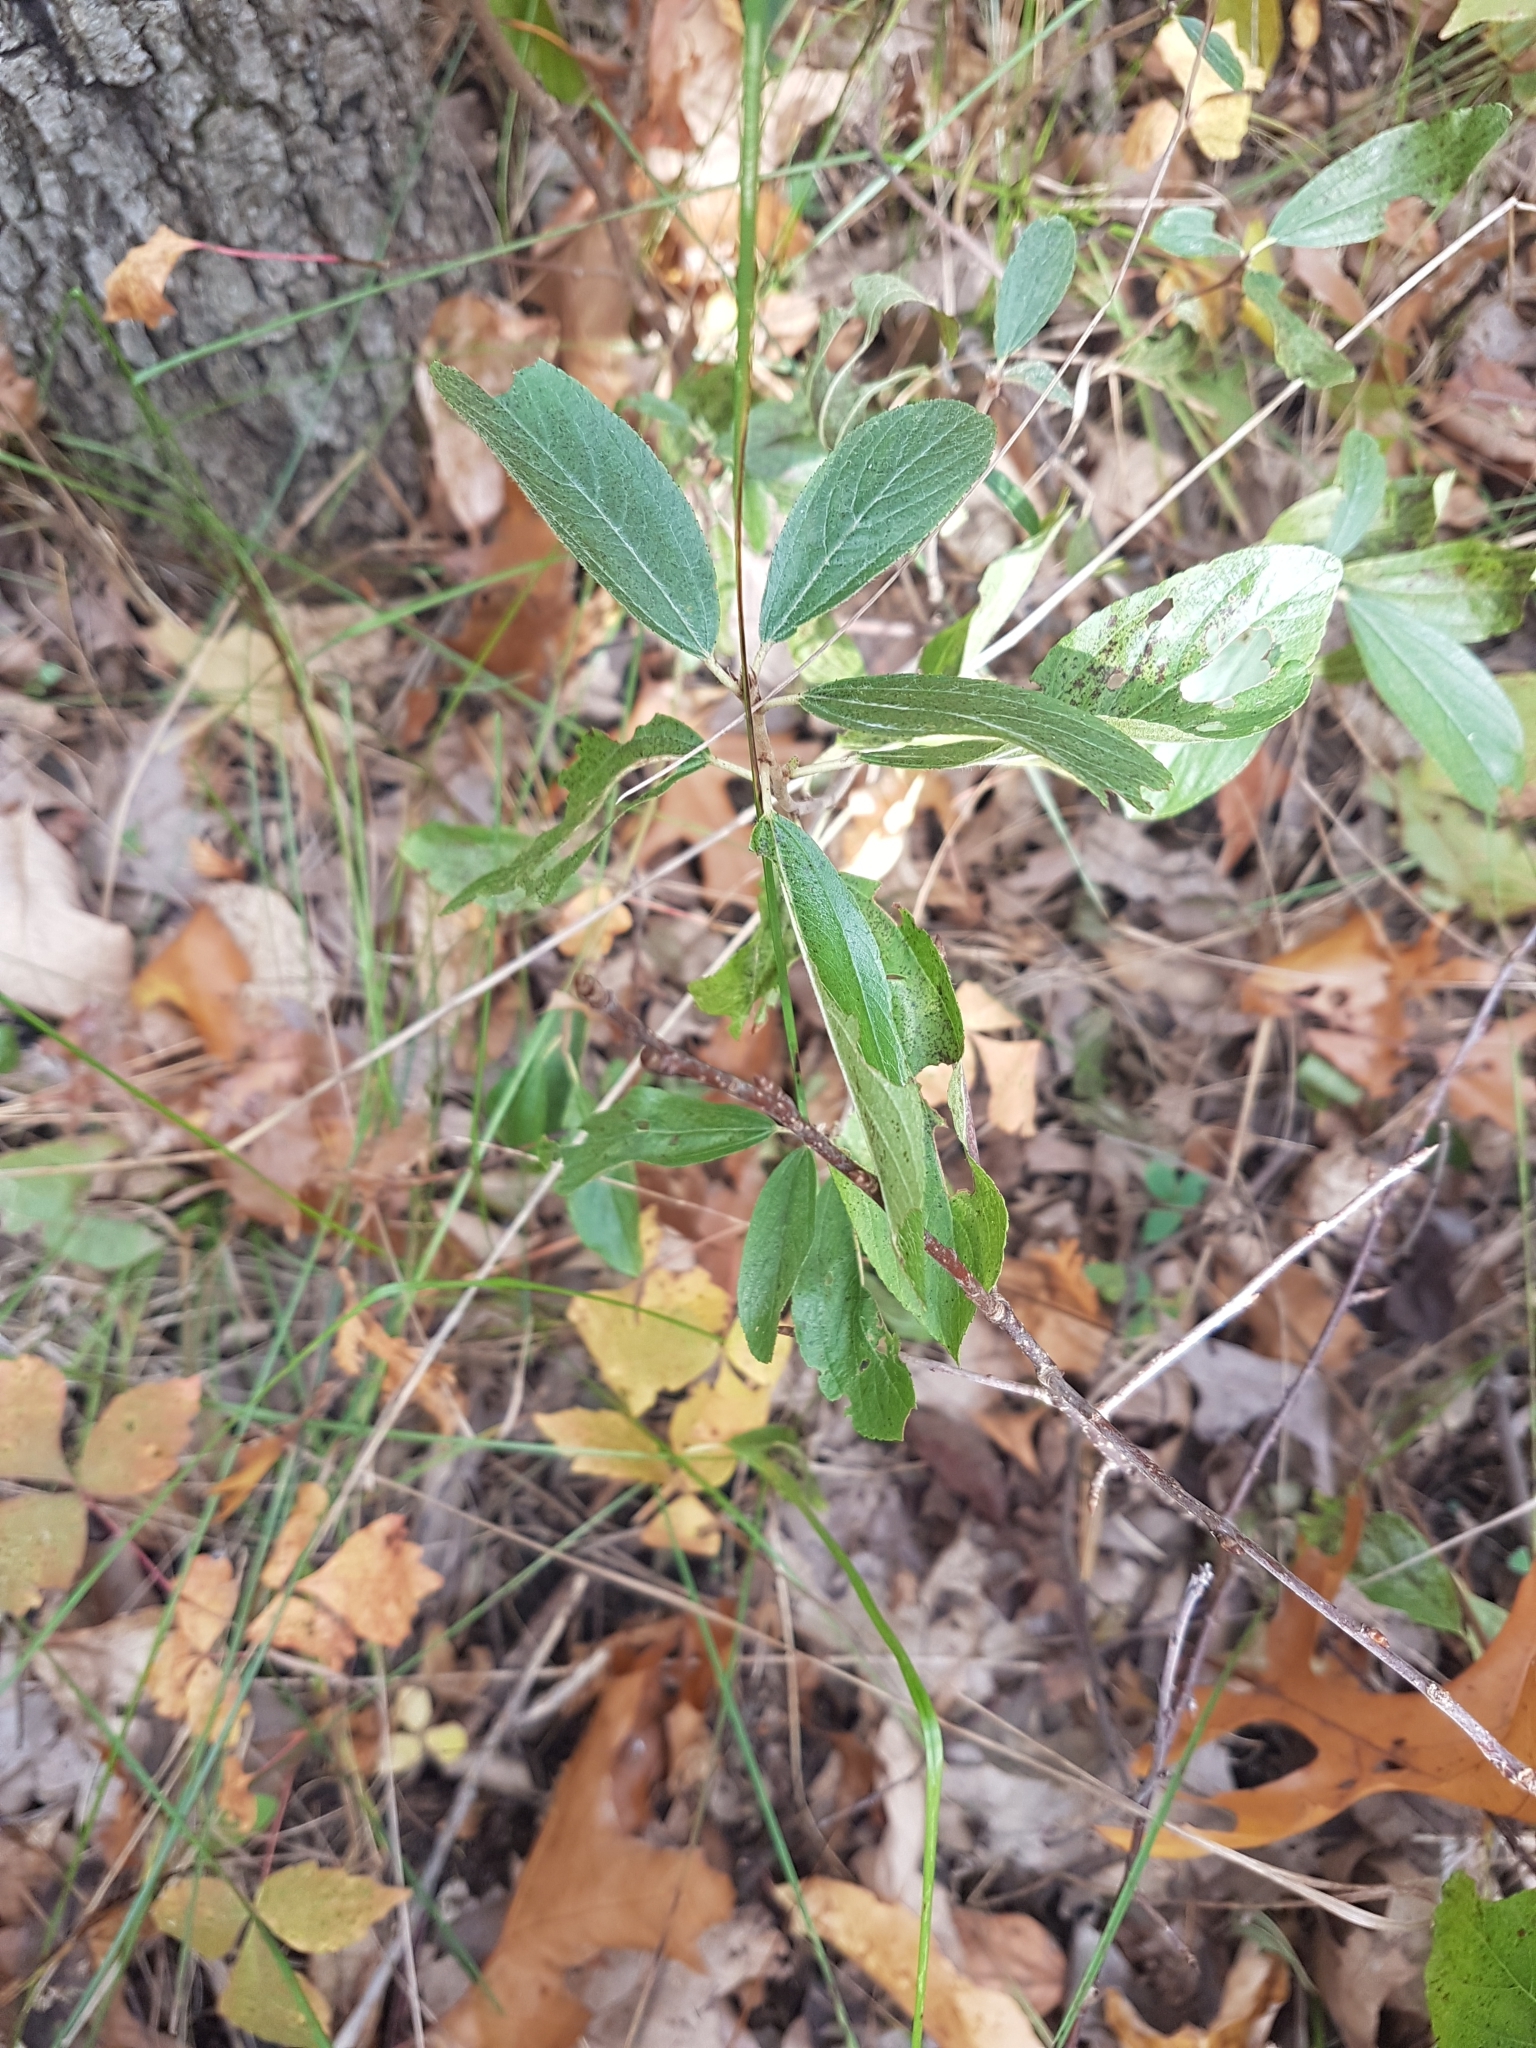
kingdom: Plantae
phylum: Tracheophyta
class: Magnoliopsida
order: Rosales
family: Rhamnaceae
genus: Ceanothus
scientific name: Ceanothus herbaceus
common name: Inland ceanothus
